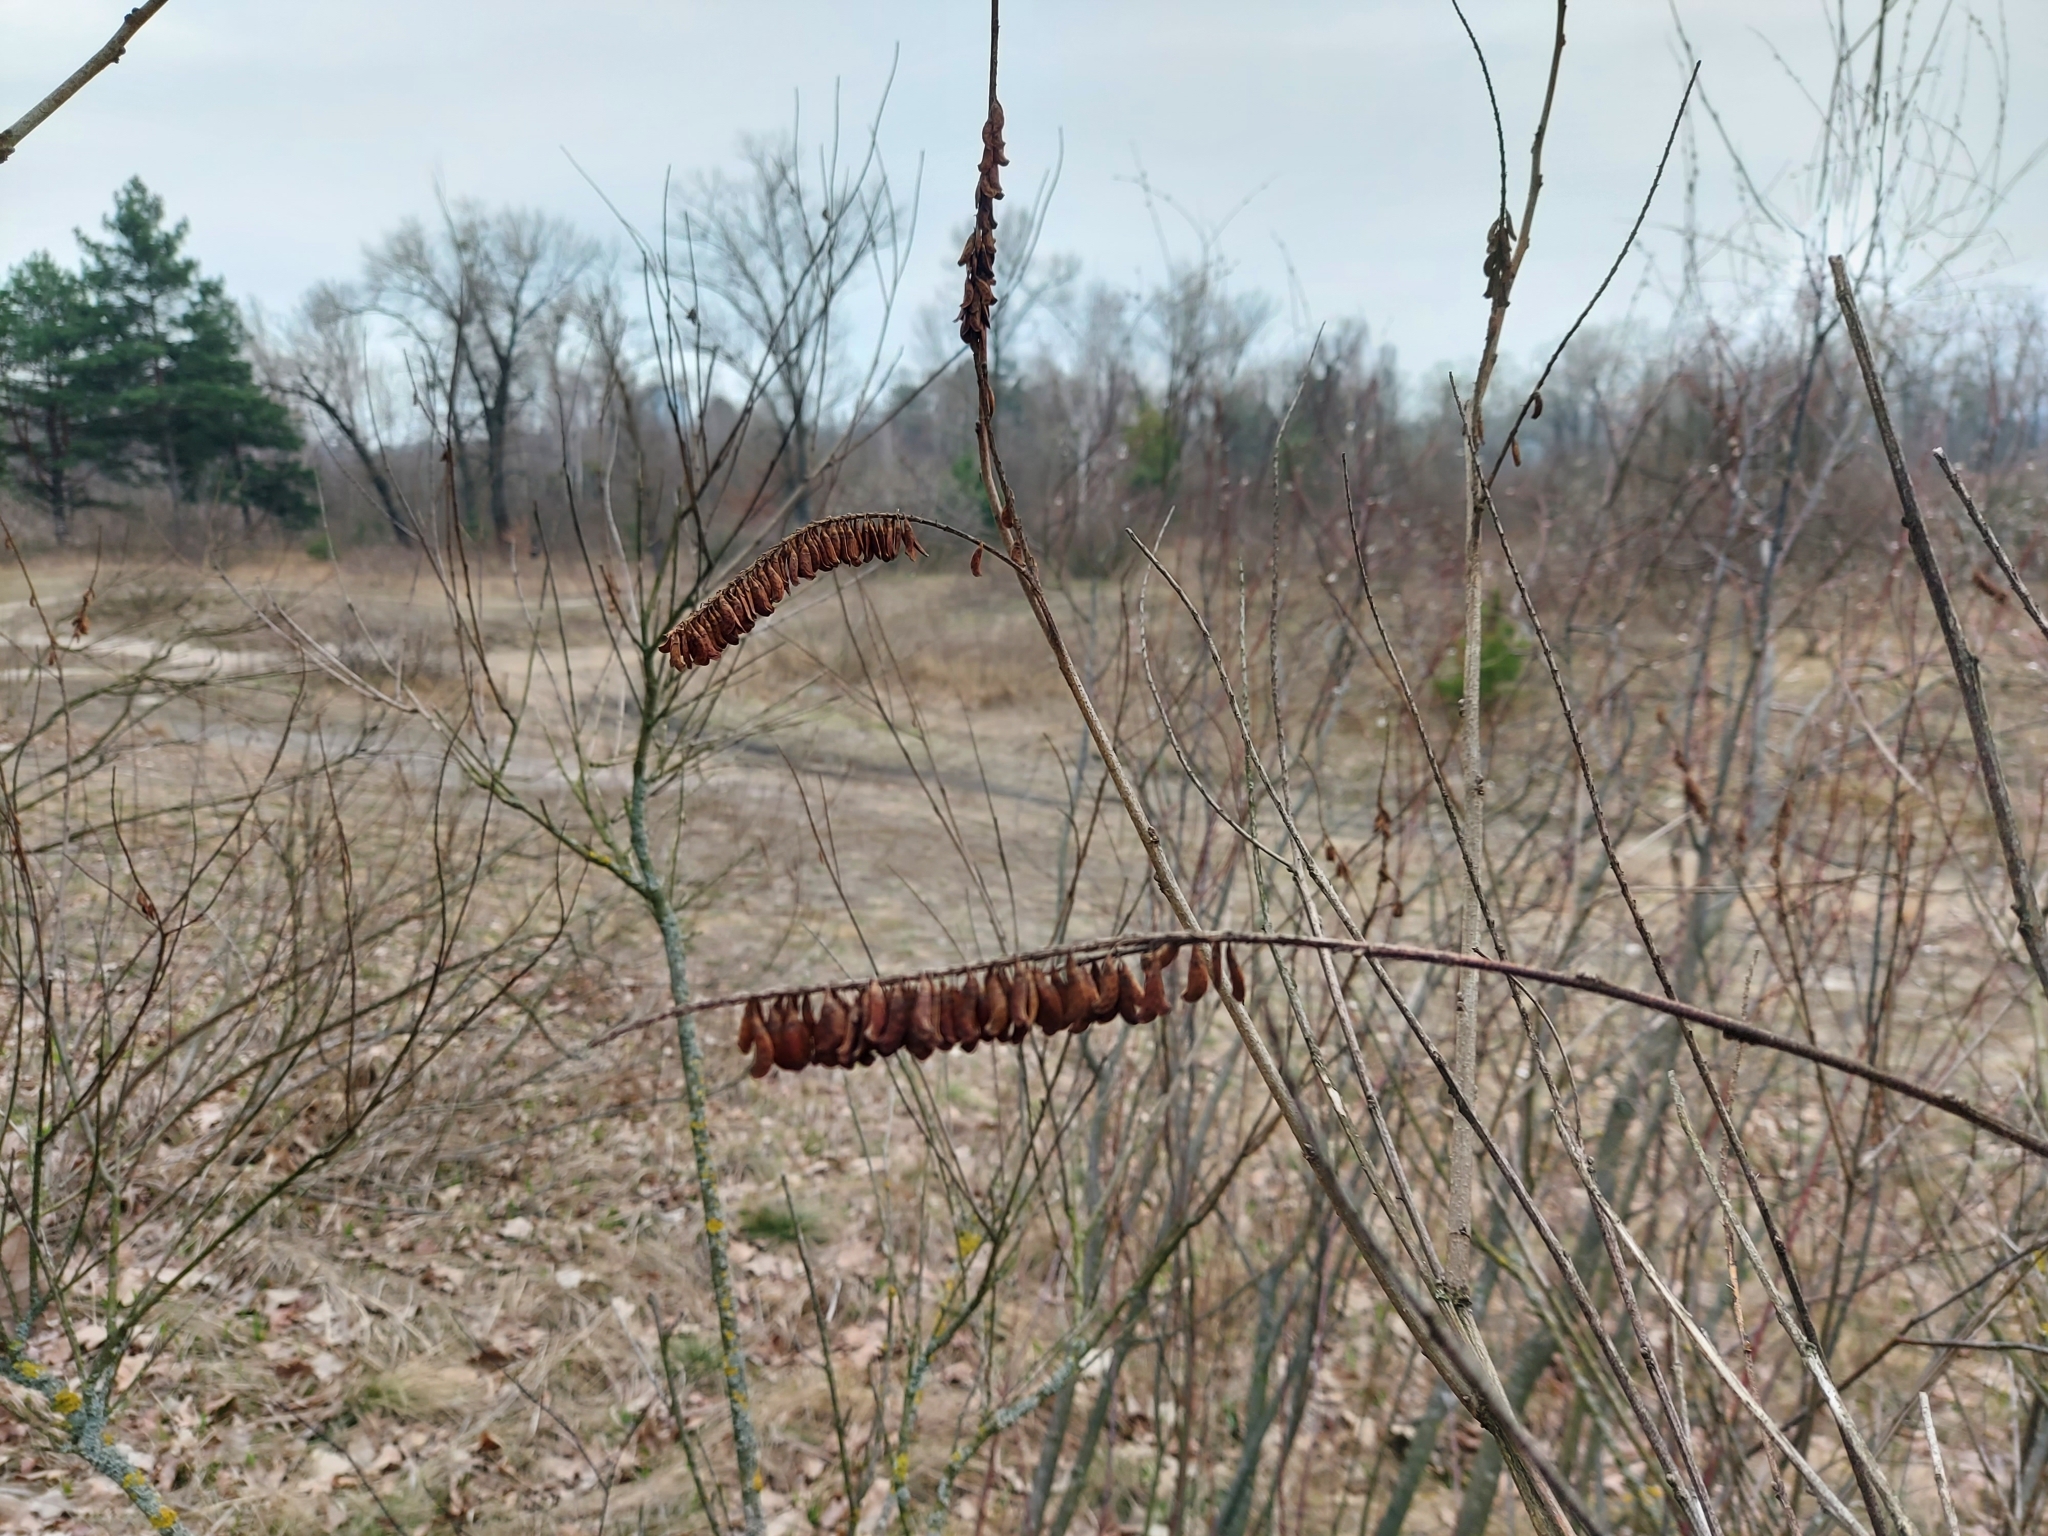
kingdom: Plantae
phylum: Tracheophyta
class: Magnoliopsida
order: Fabales
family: Fabaceae
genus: Amorpha
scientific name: Amorpha fruticosa
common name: False indigo
